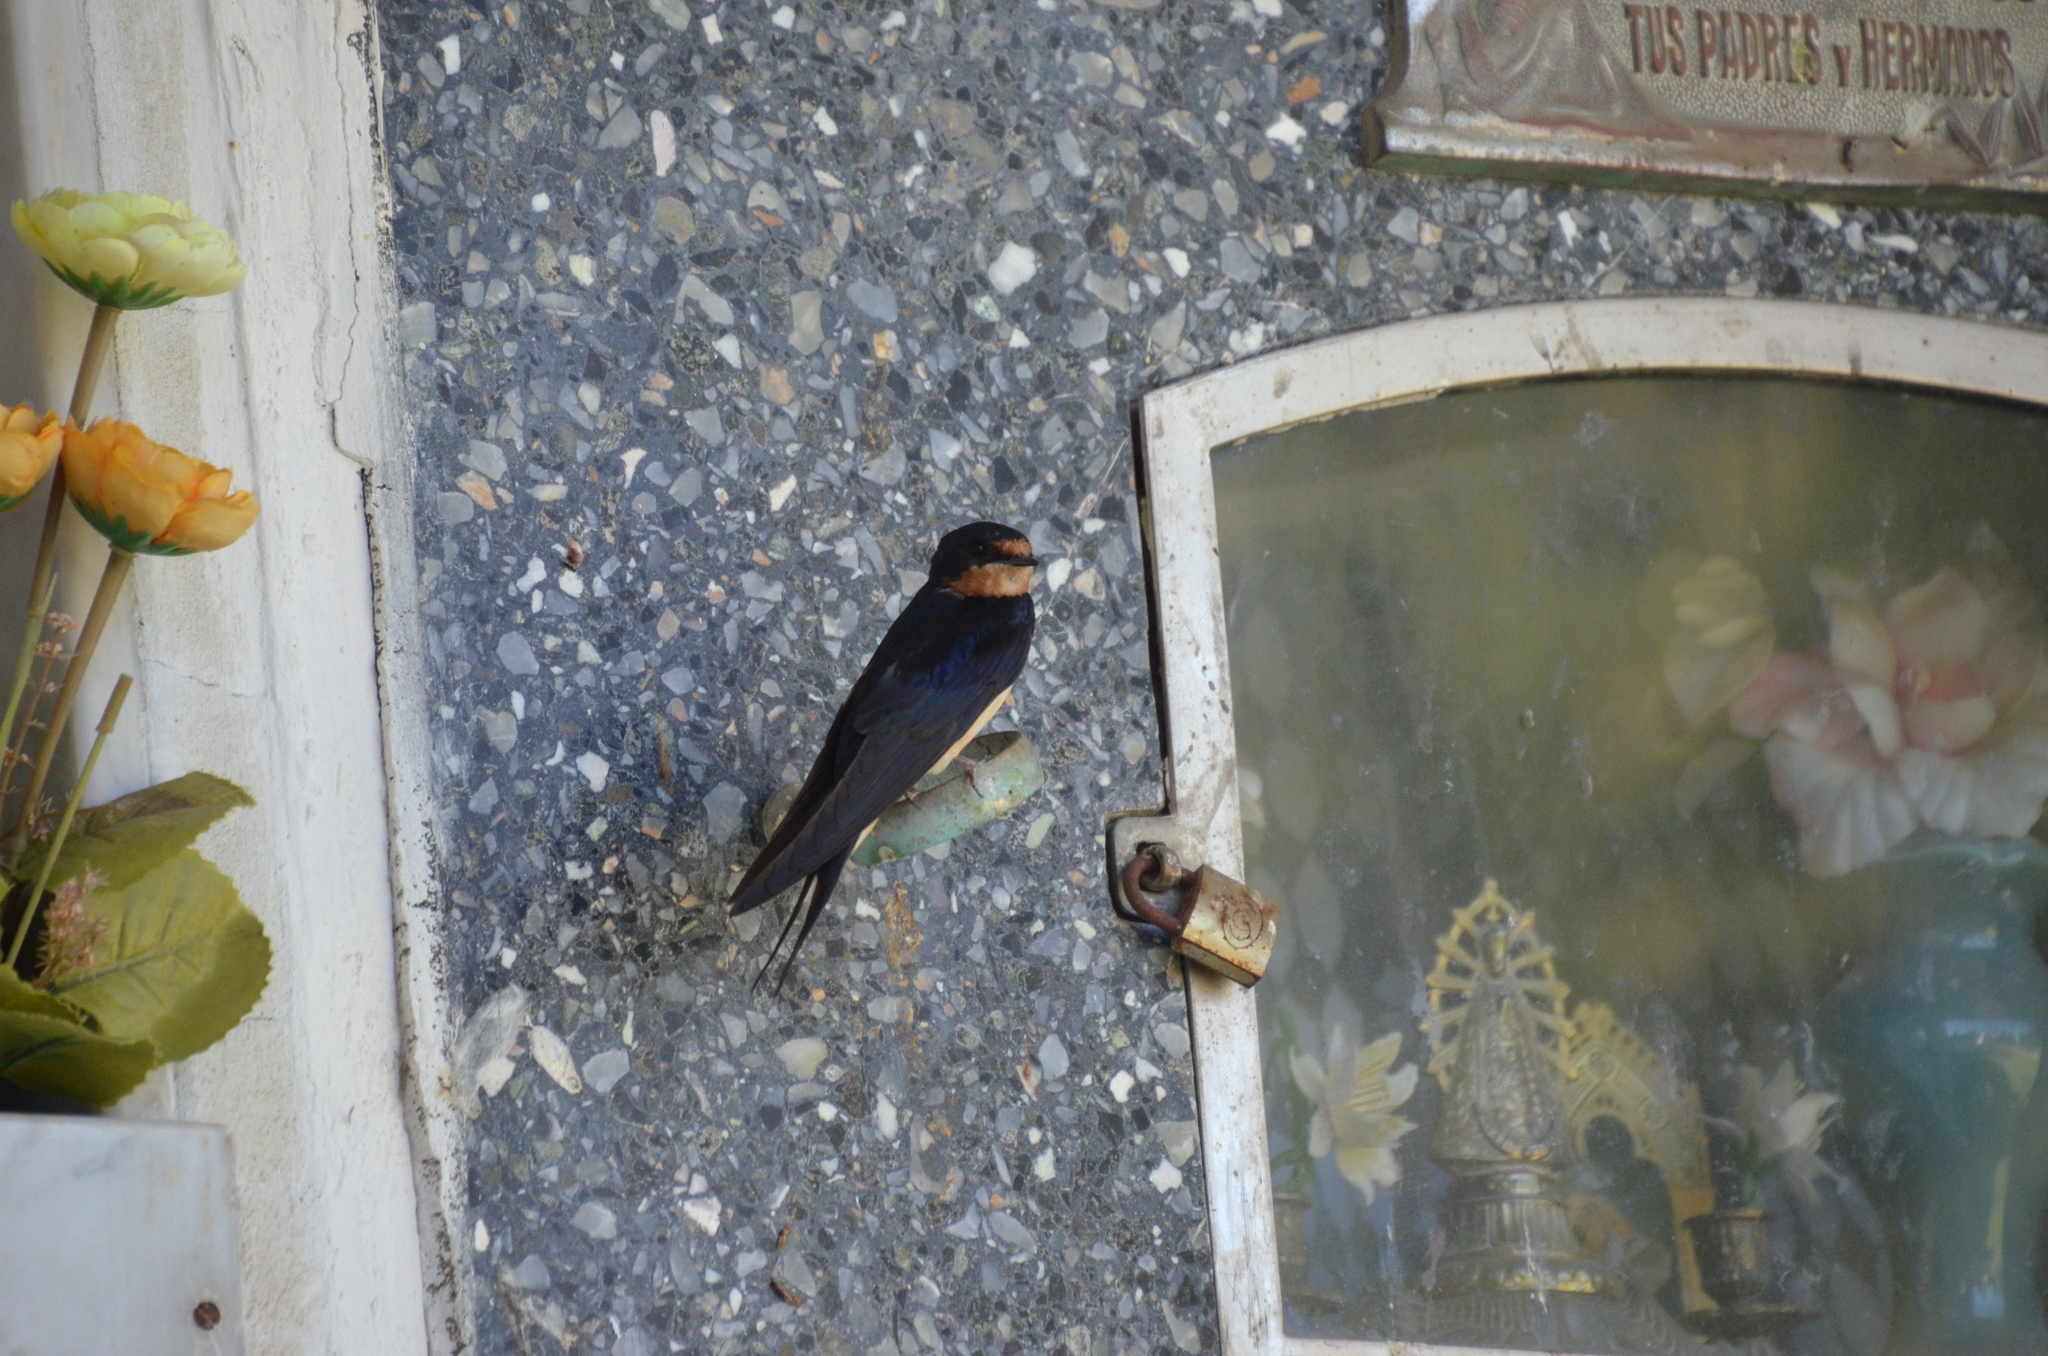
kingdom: Animalia
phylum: Chordata
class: Aves
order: Passeriformes
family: Hirundinidae
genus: Hirundo
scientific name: Hirundo rustica
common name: Barn swallow
